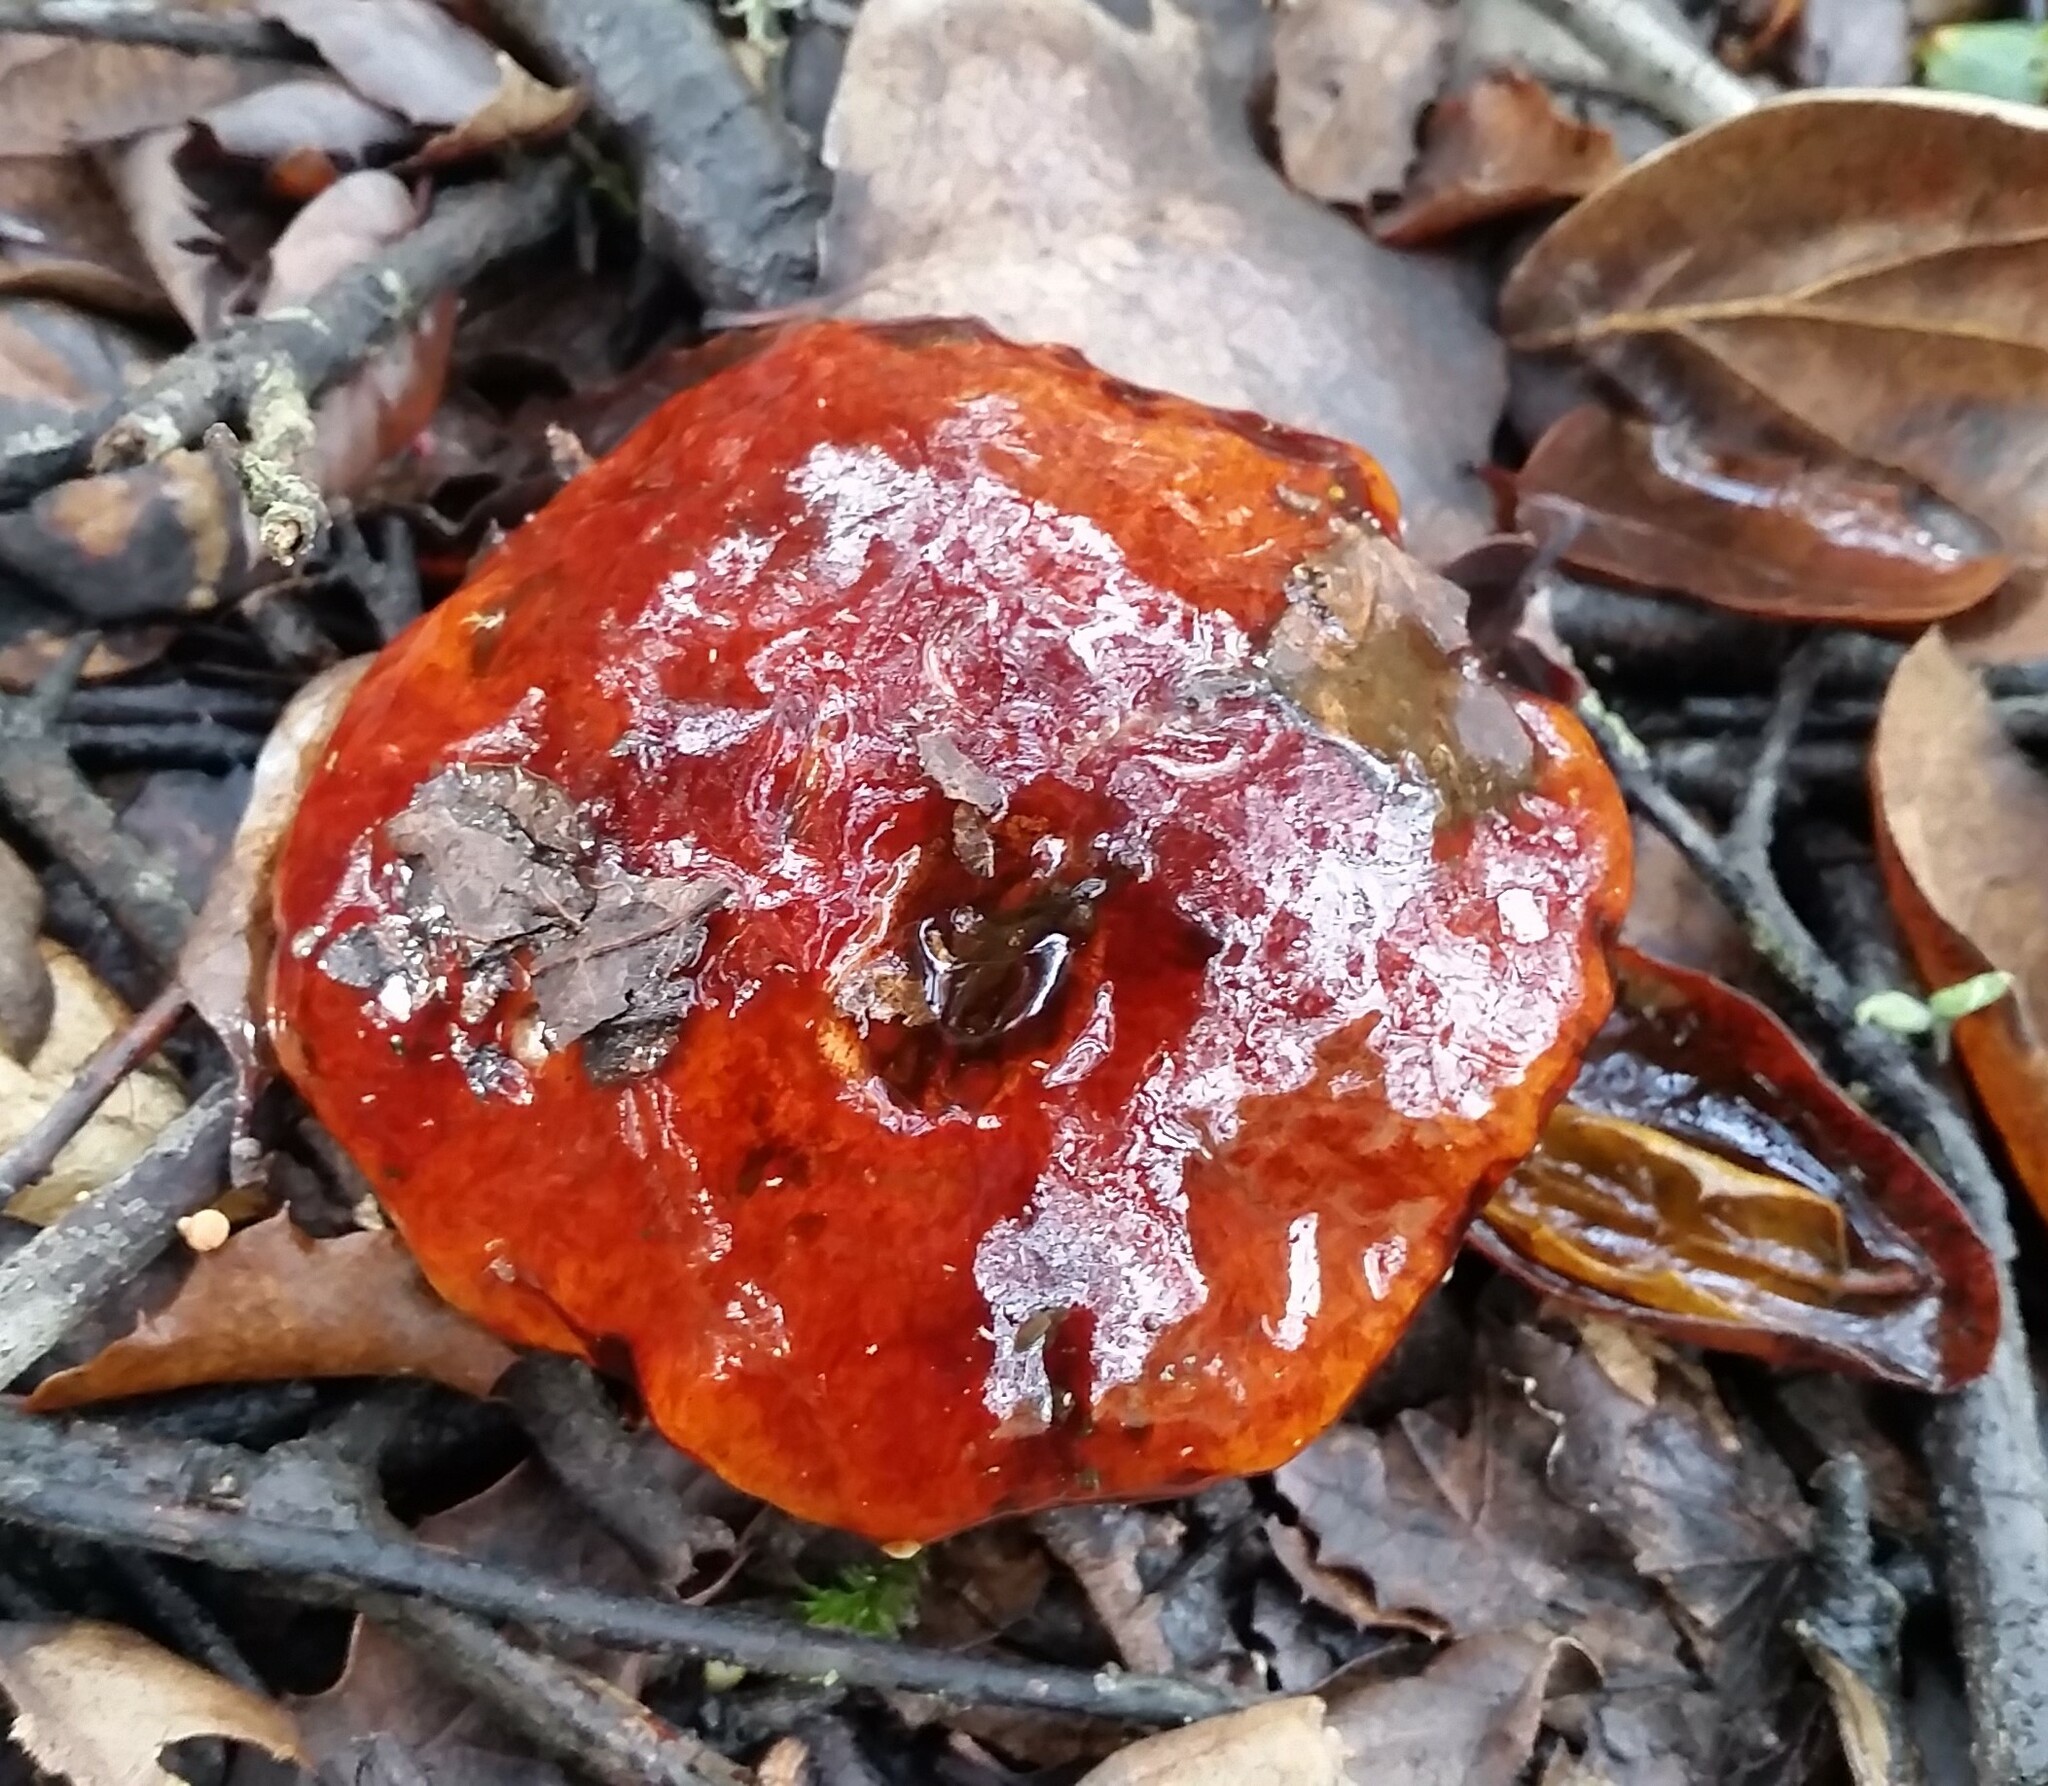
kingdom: Fungi
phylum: Basidiomycota
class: Agaricomycetes
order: Boletales
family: Suillaceae
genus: Suillus
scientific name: Suillus pungens
